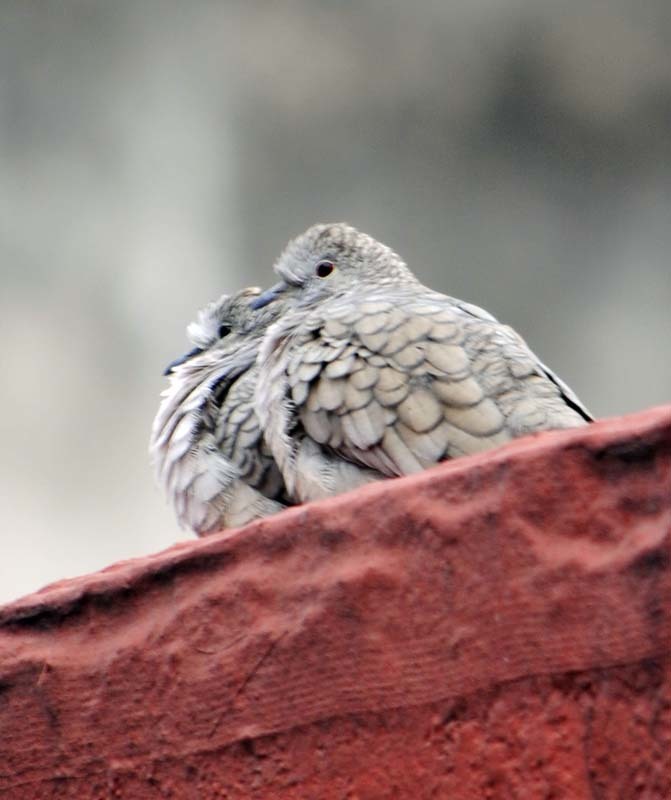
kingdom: Animalia
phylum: Chordata
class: Aves
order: Columbiformes
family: Columbidae
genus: Columbina
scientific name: Columbina inca
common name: Inca dove
